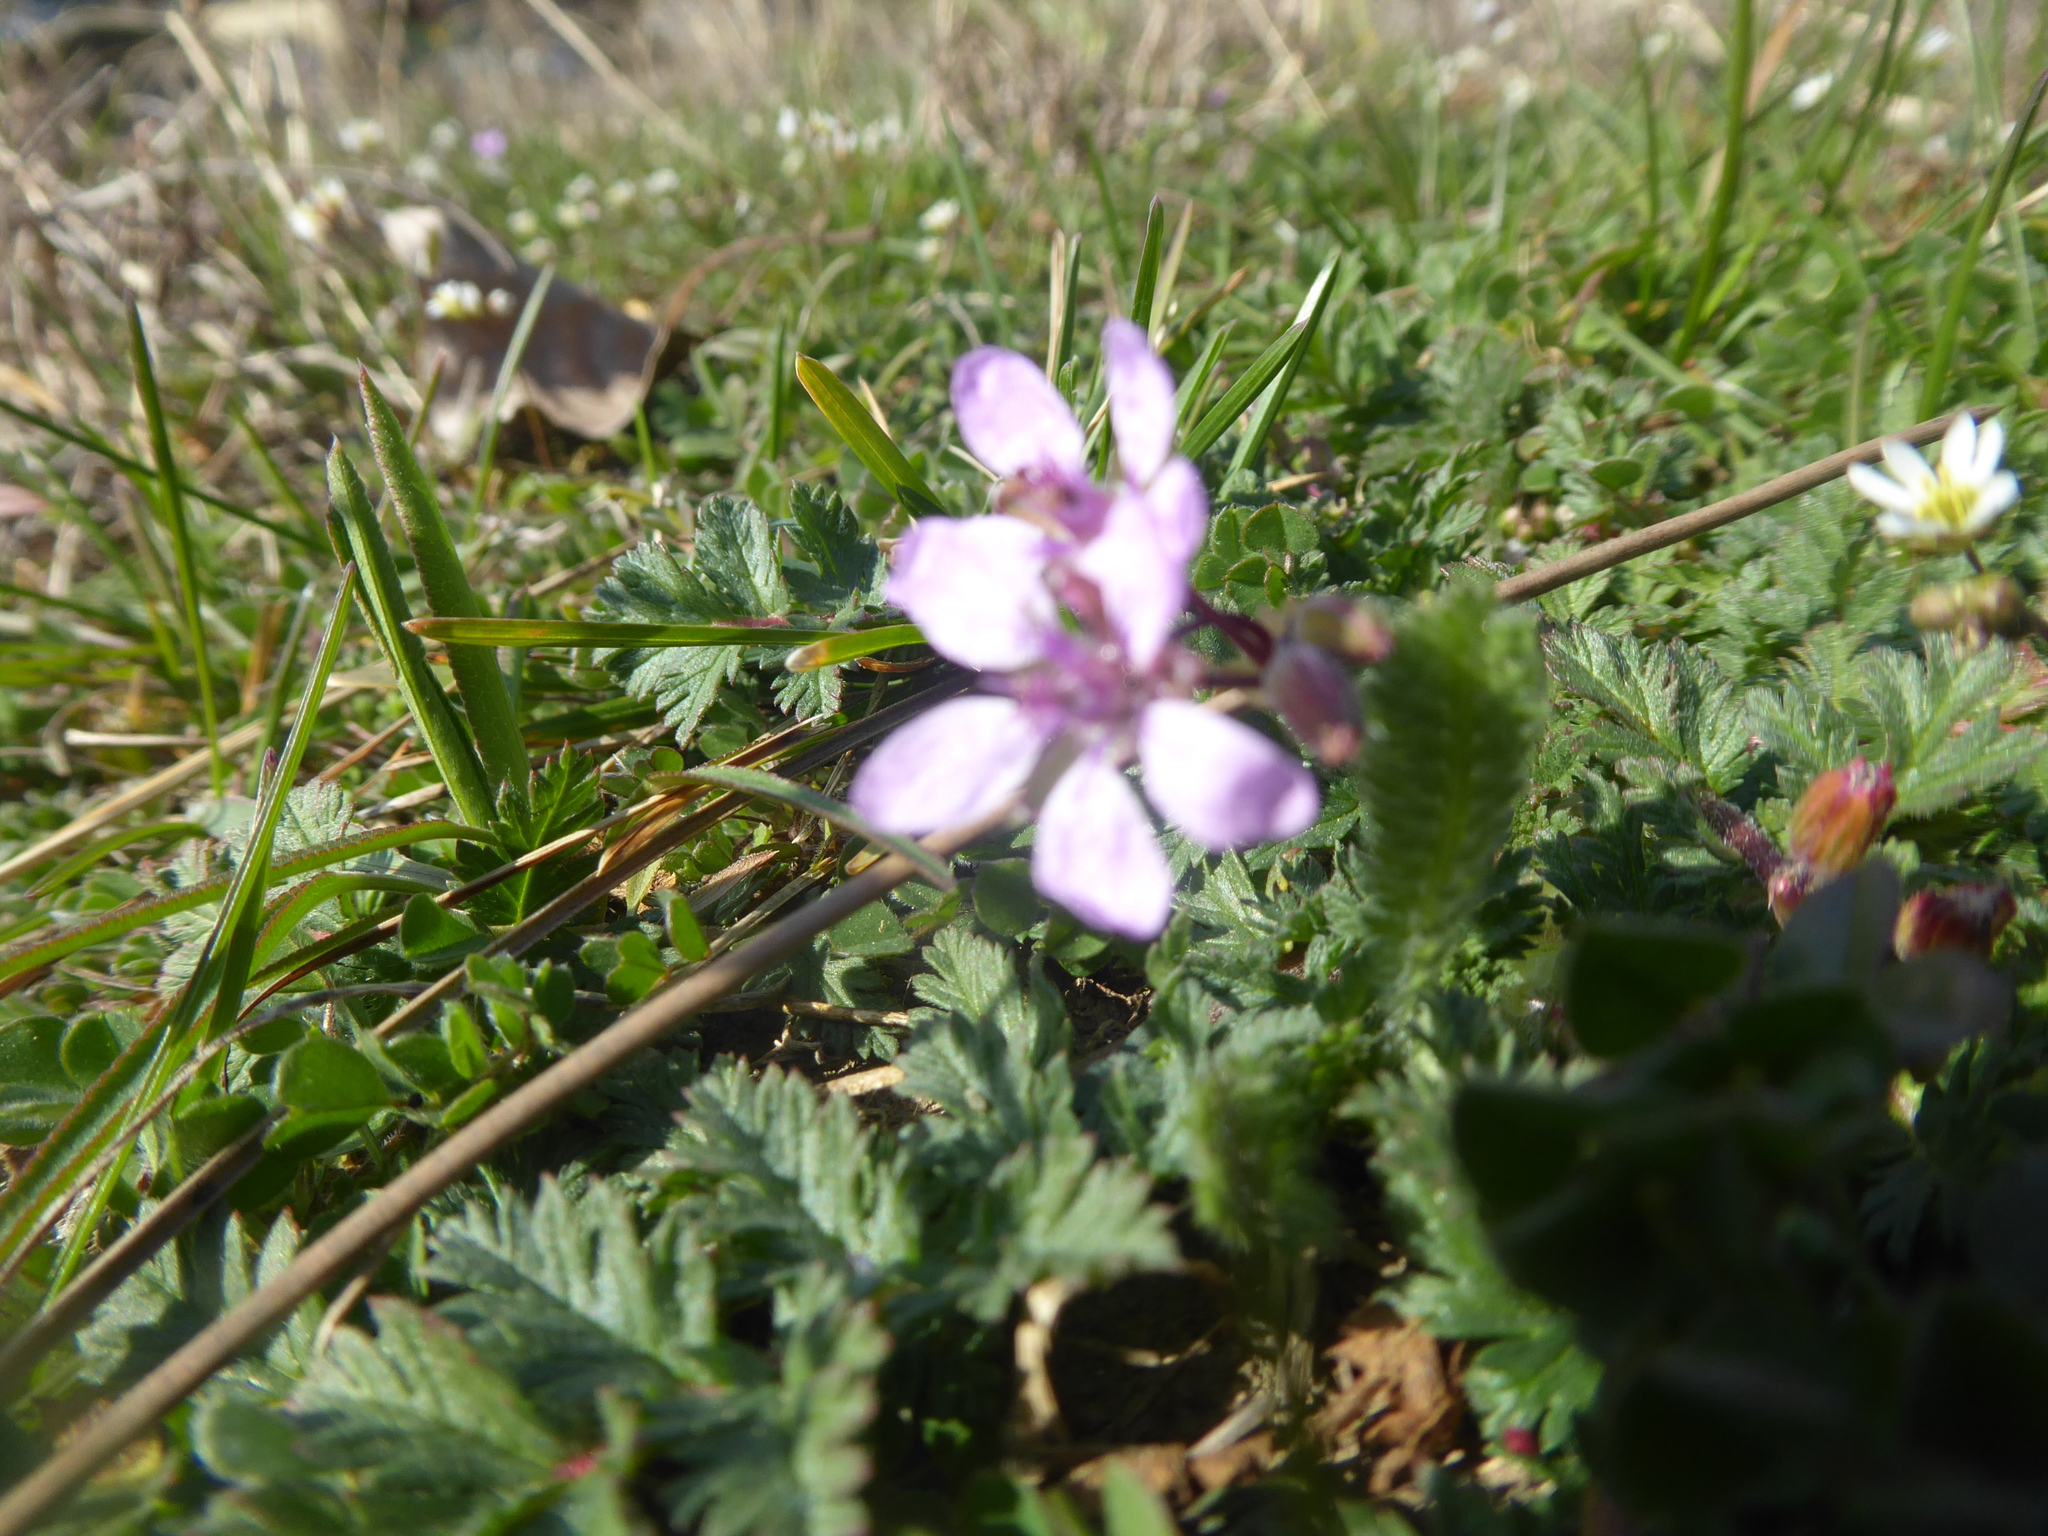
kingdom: Plantae
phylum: Tracheophyta
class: Magnoliopsida
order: Geraniales
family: Geraniaceae
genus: Erodium
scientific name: Erodium cicutarium
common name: Common stork's-bill
